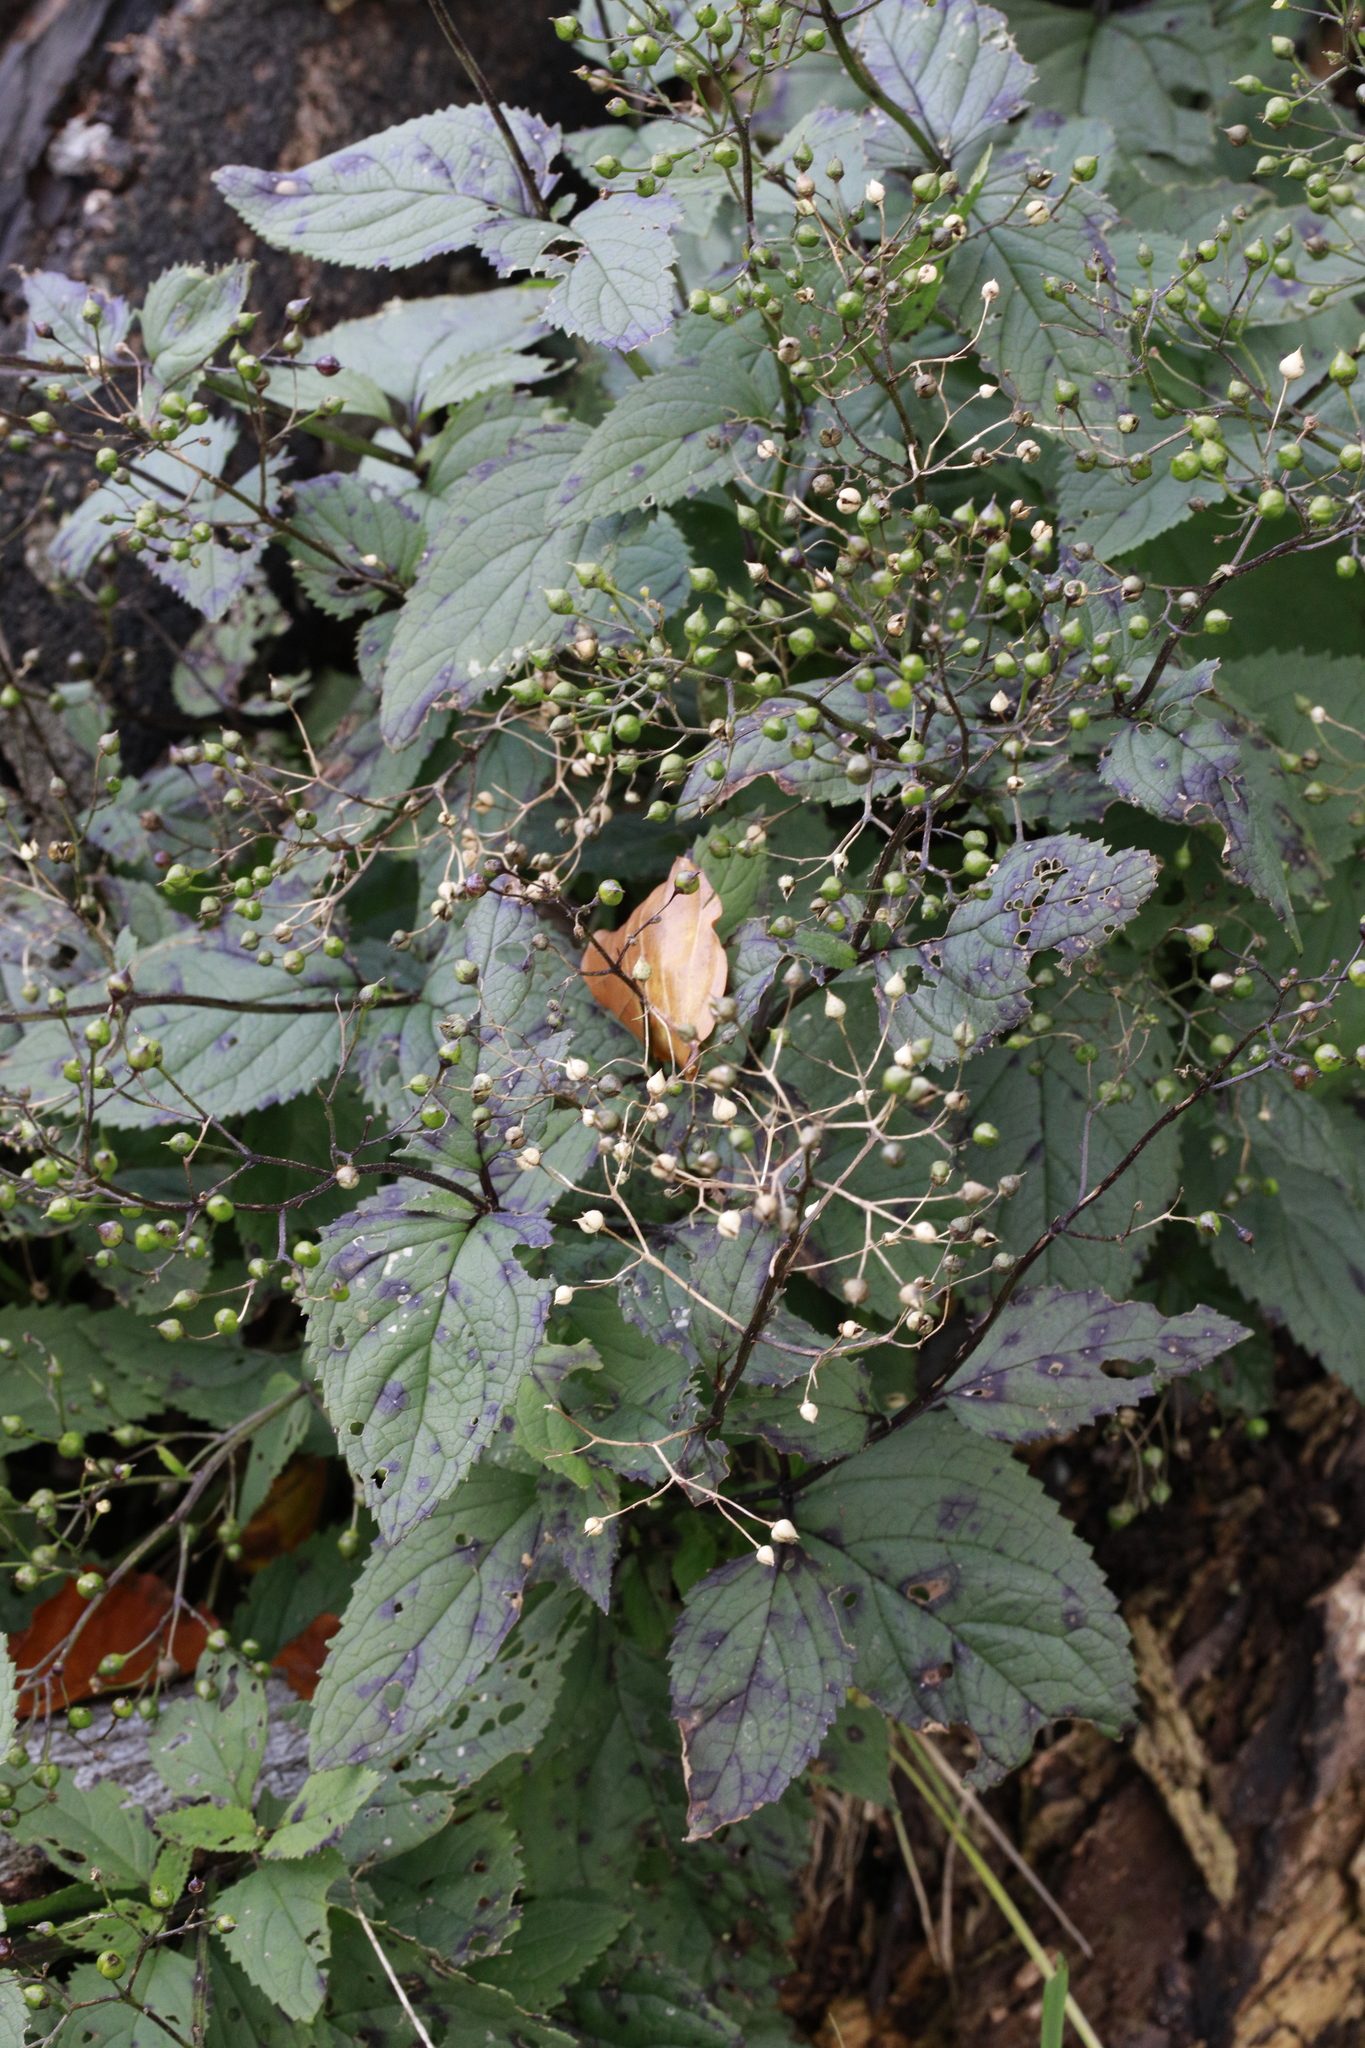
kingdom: Plantae
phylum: Tracheophyta
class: Magnoliopsida
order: Lamiales
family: Scrophulariaceae
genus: Scrophularia
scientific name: Scrophularia nodosa
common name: Common figwort
